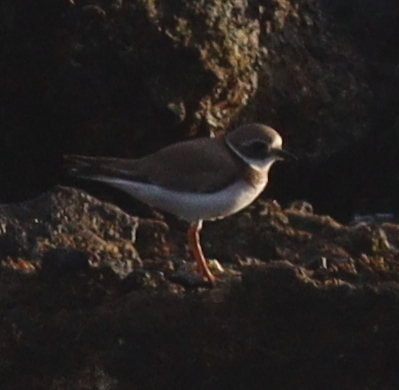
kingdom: Animalia
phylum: Chordata
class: Aves
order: Charadriiformes
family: Charadriidae
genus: Charadrius
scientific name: Charadrius hiaticula
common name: Common ringed plover
